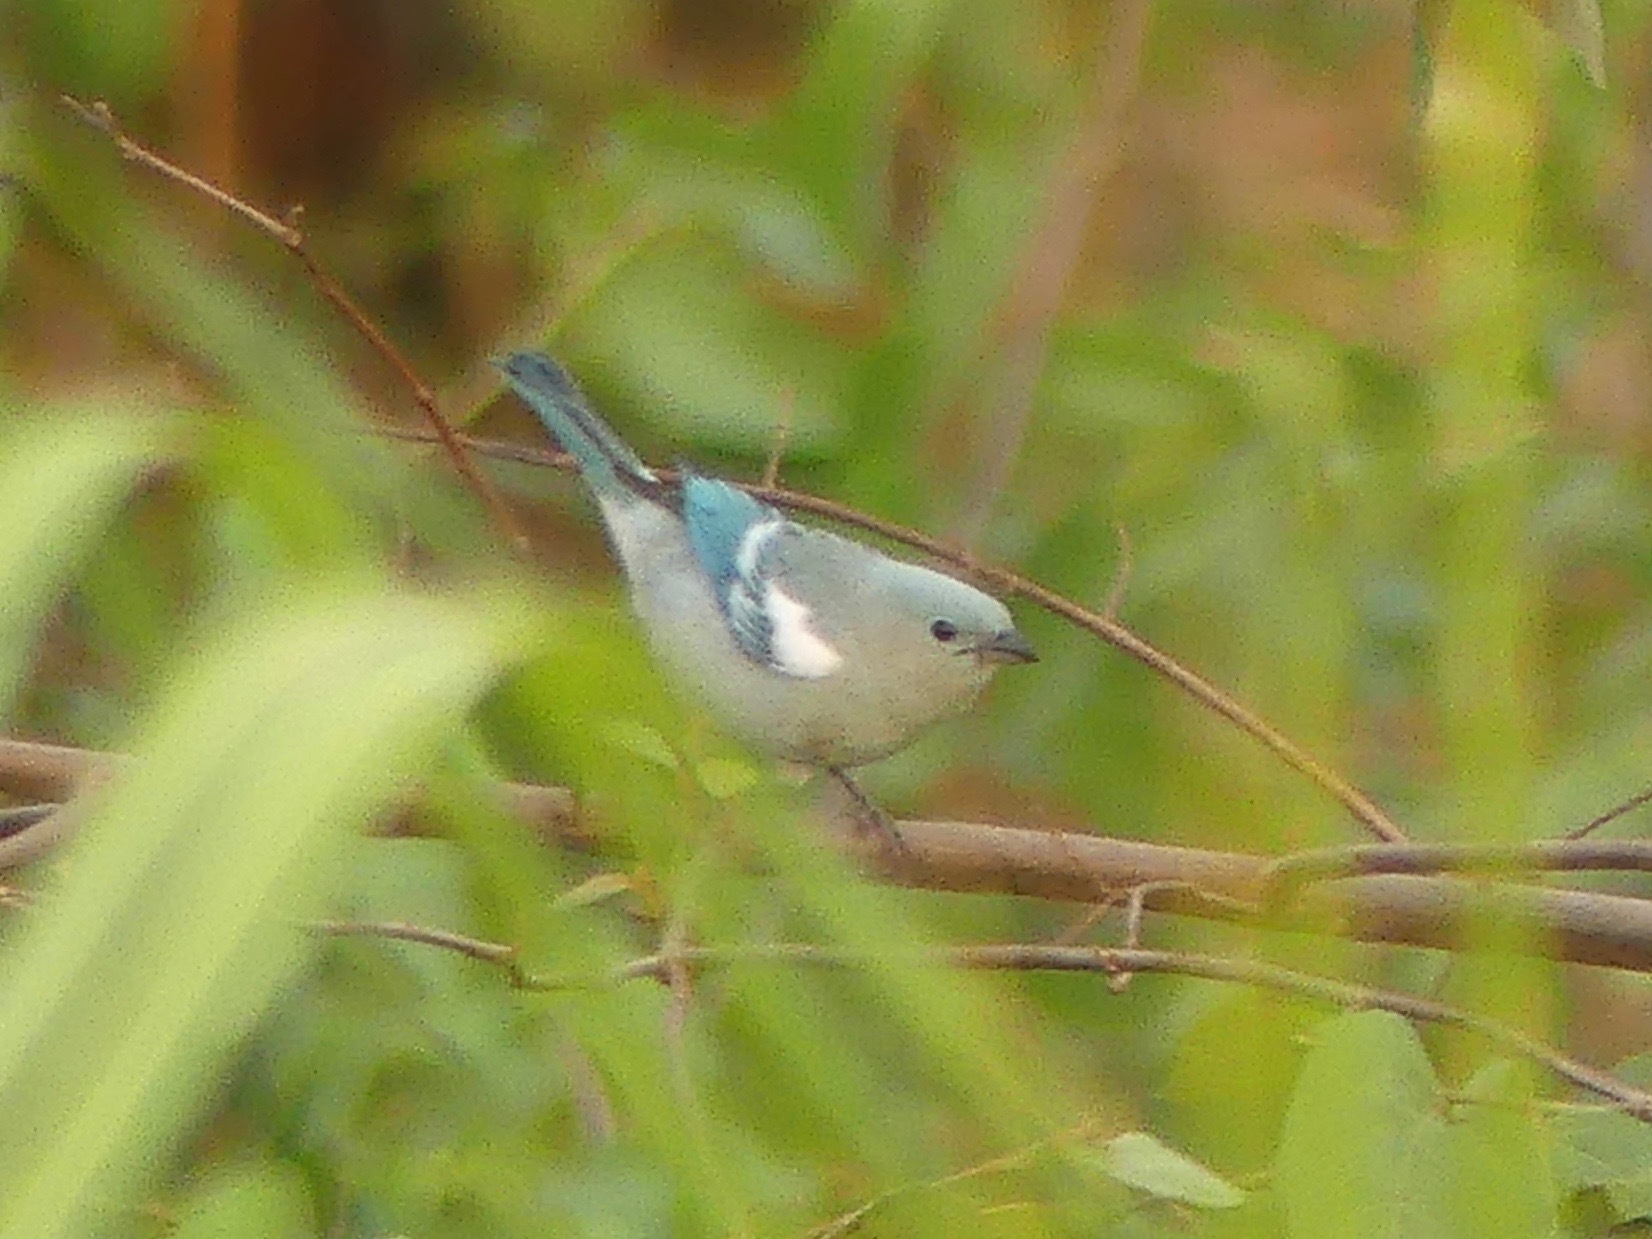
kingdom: Animalia
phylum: Chordata
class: Aves
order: Passeriformes
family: Thraupidae
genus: Thraupis
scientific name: Thraupis episcopus
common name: Blue-grey tanager
